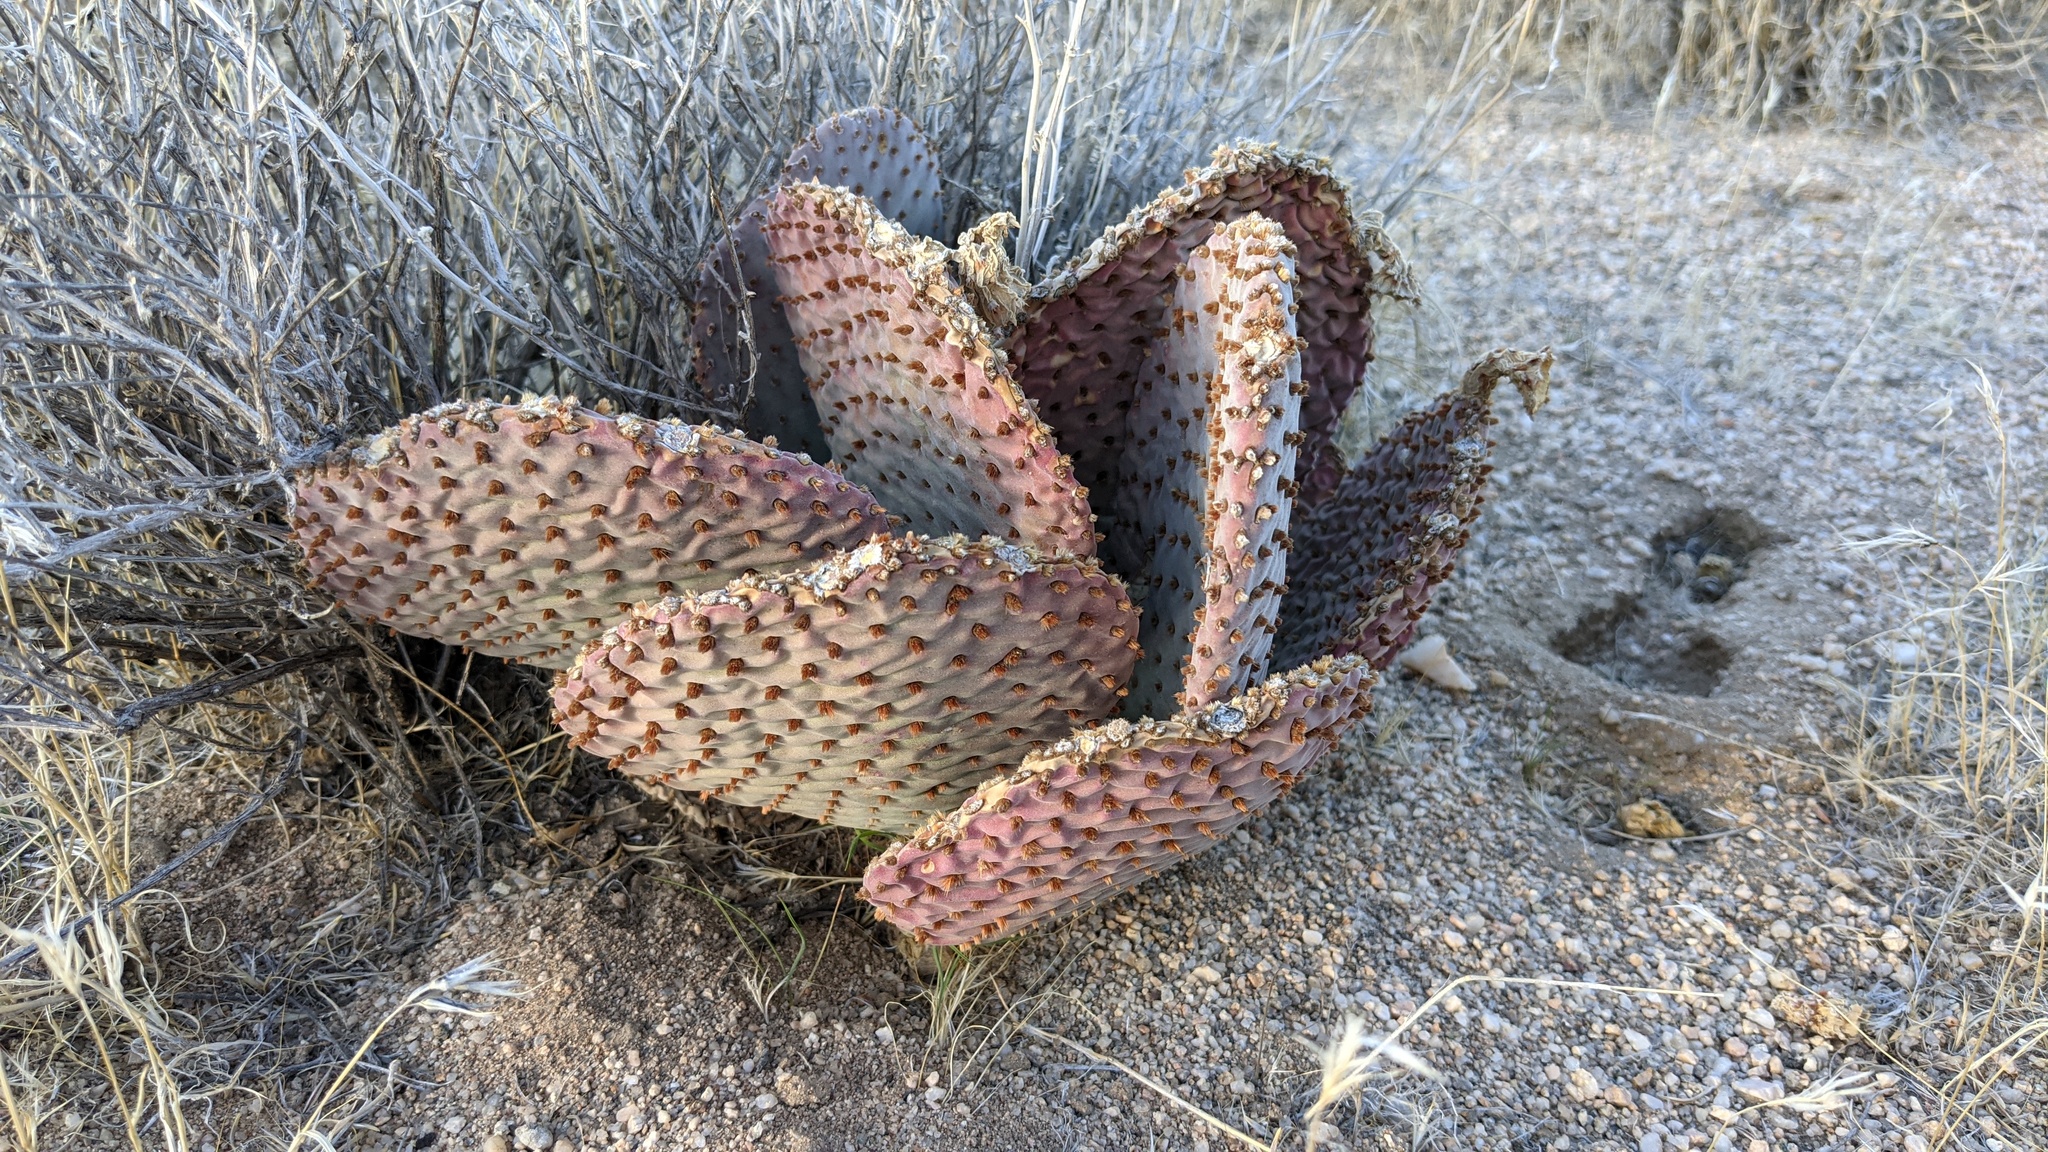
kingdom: Plantae
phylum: Tracheophyta
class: Magnoliopsida
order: Caryophyllales
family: Cactaceae
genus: Opuntia
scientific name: Opuntia basilaris
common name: Beavertail prickly-pear
